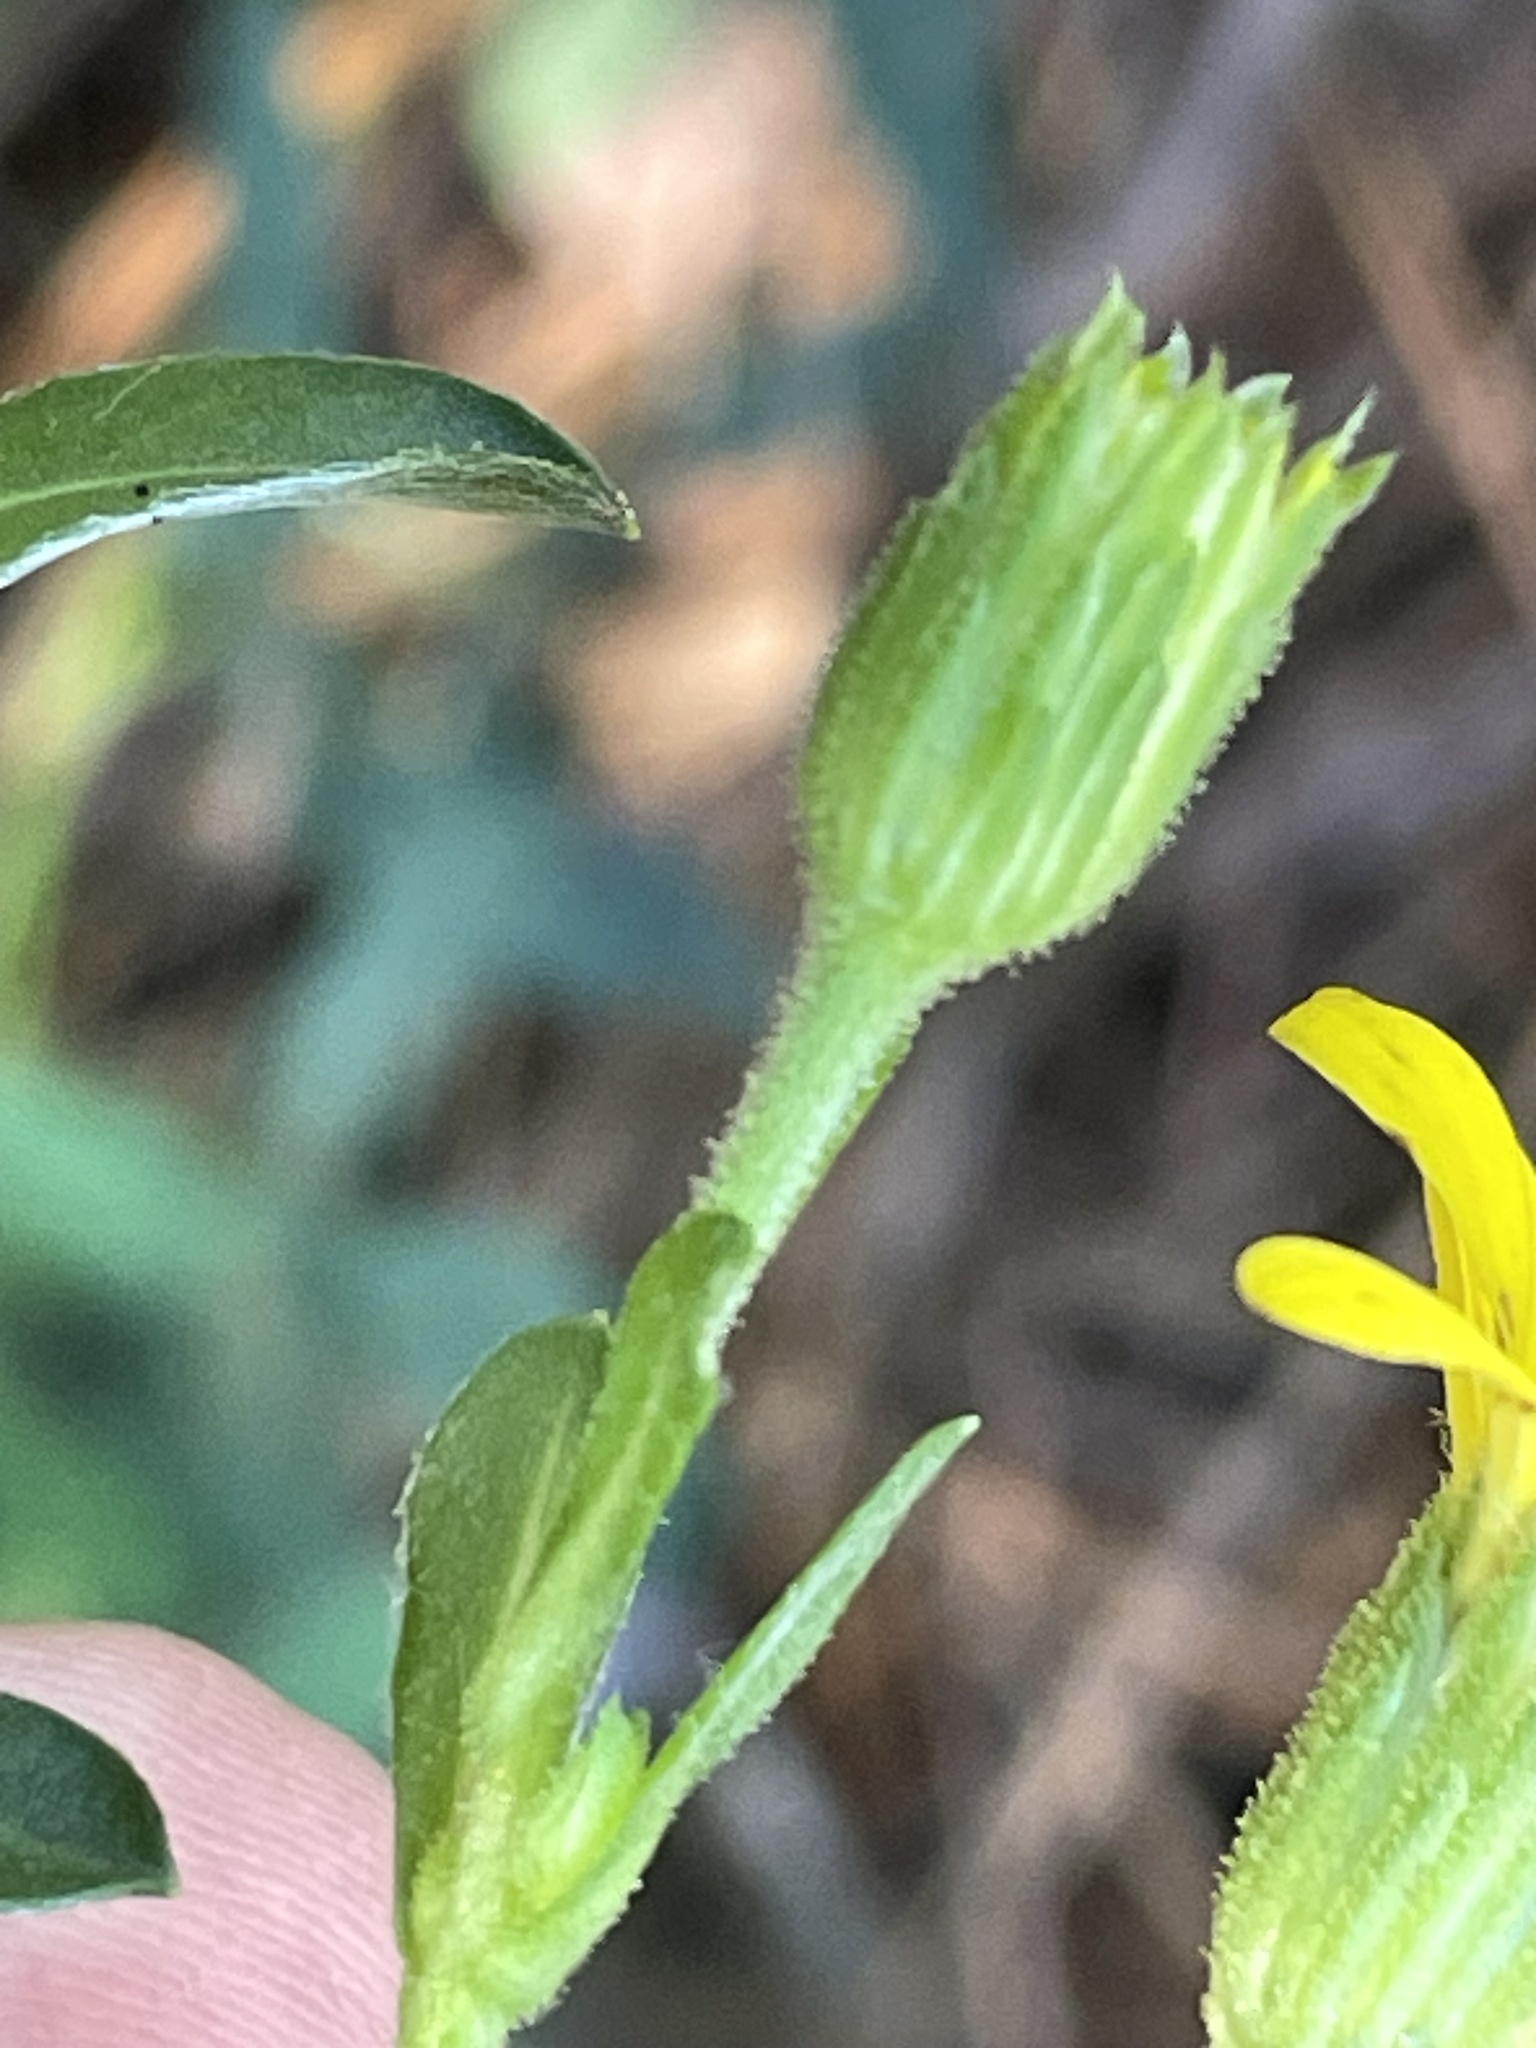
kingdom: Plantae
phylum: Tracheophyta
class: Magnoliopsida
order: Asterales
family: Asteraceae
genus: Chrysopsis
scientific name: Chrysopsis mariana
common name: Maryland golden-aster
